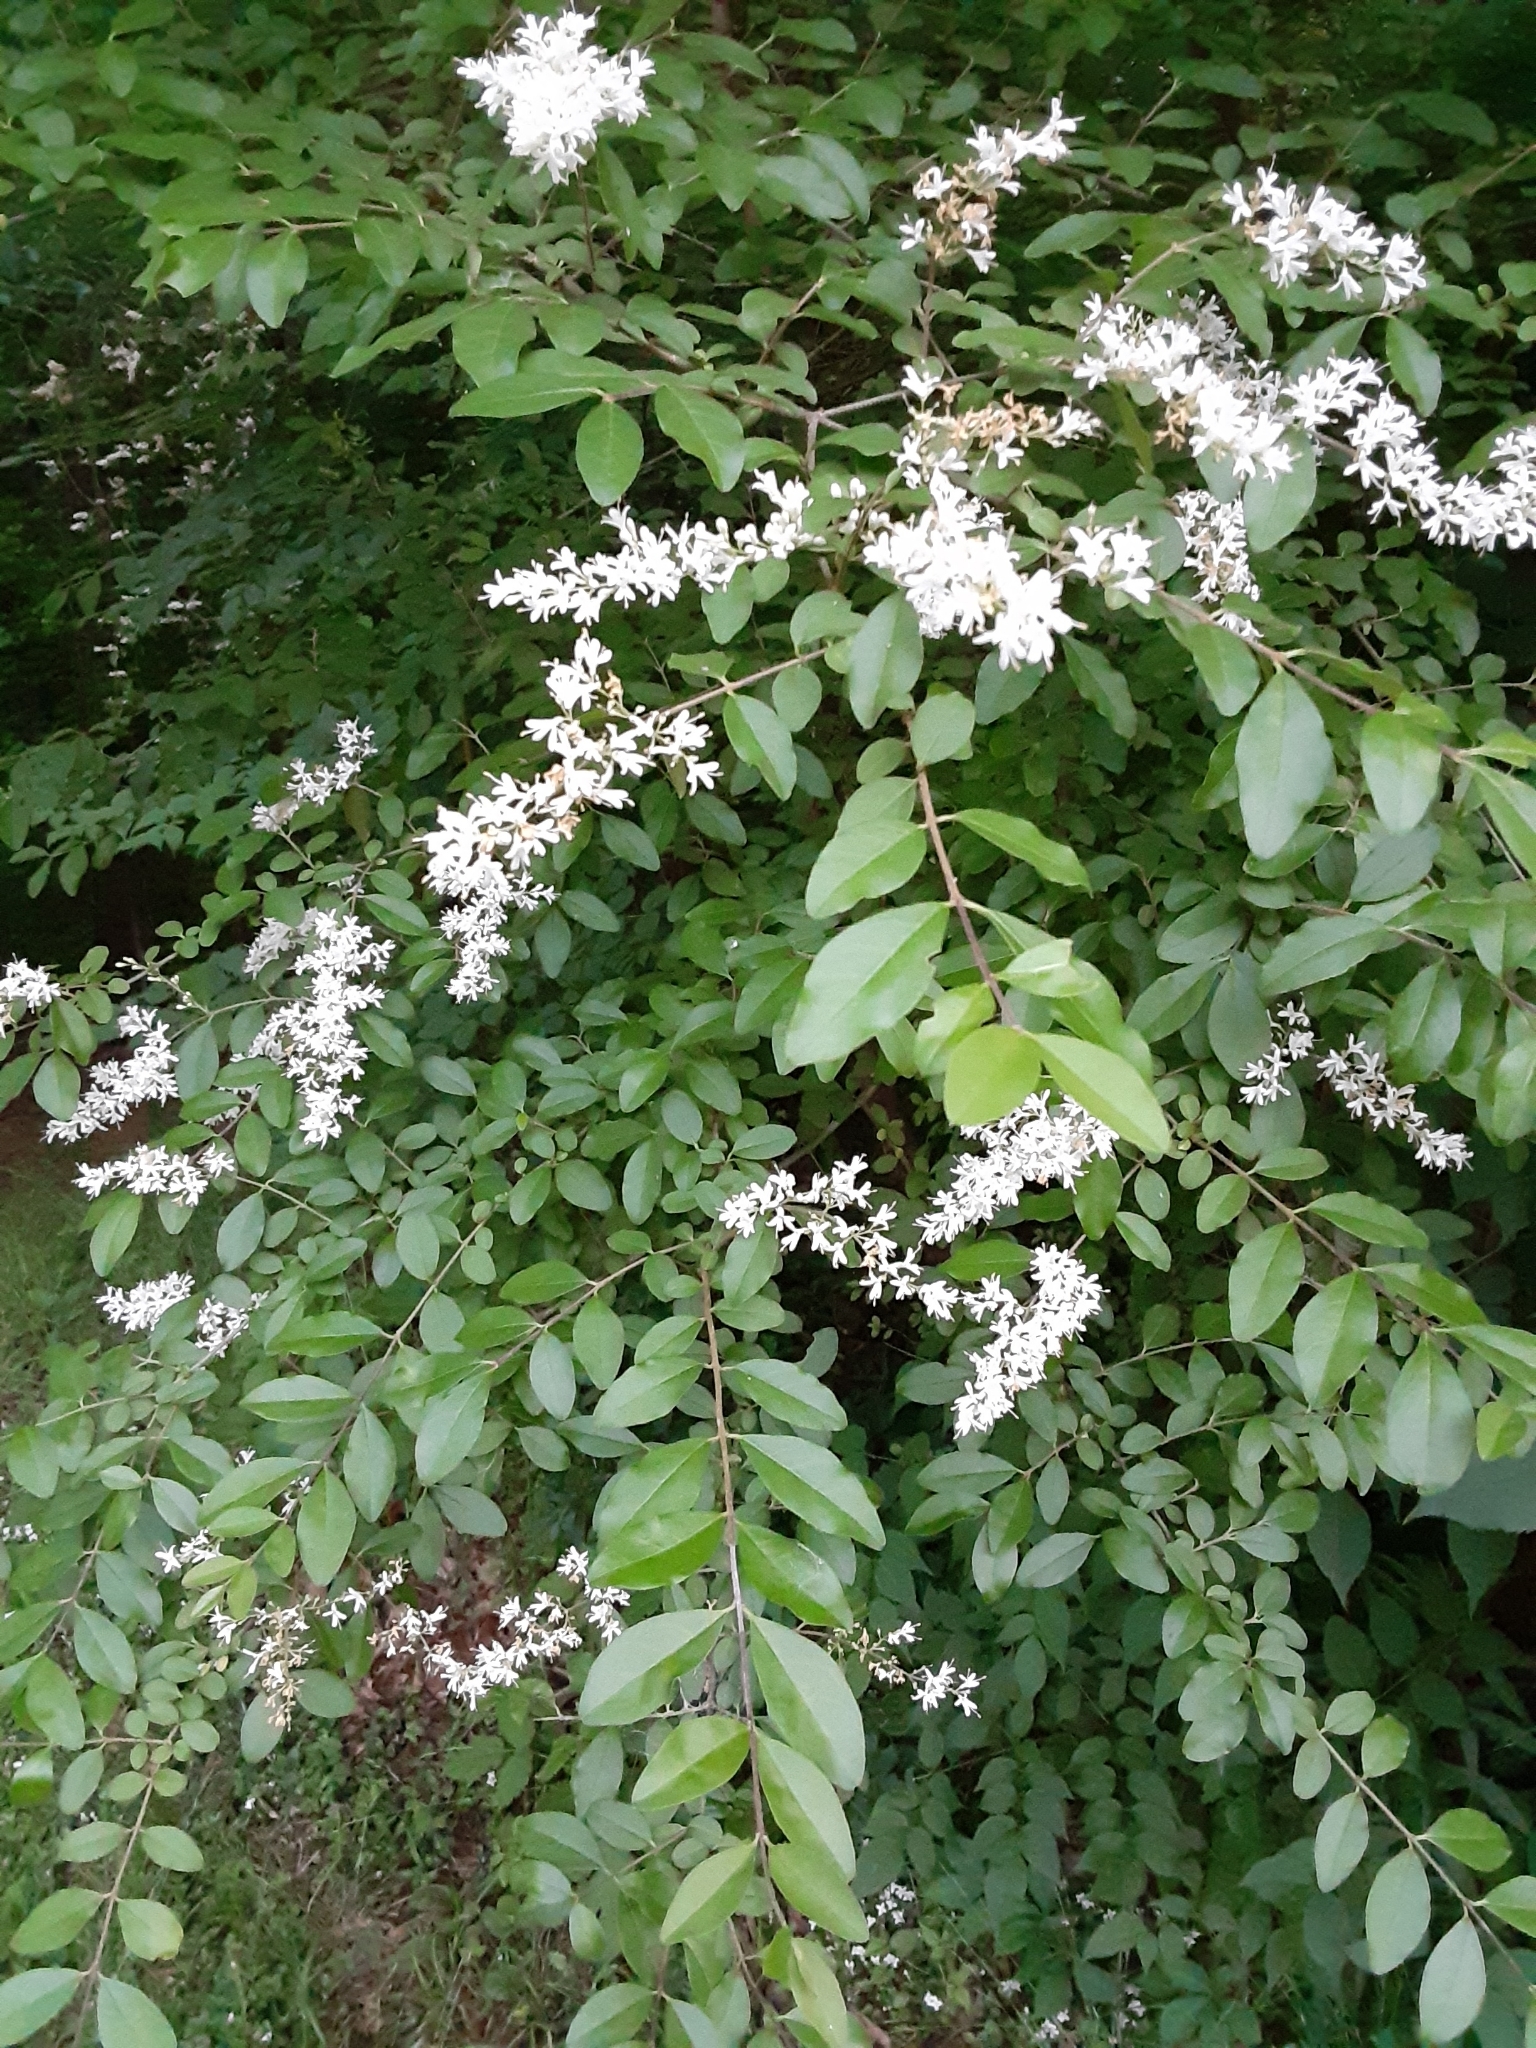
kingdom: Plantae
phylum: Tracheophyta
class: Magnoliopsida
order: Lamiales
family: Oleaceae
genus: Ligustrum
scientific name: Ligustrum sinense
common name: Chinese privet
